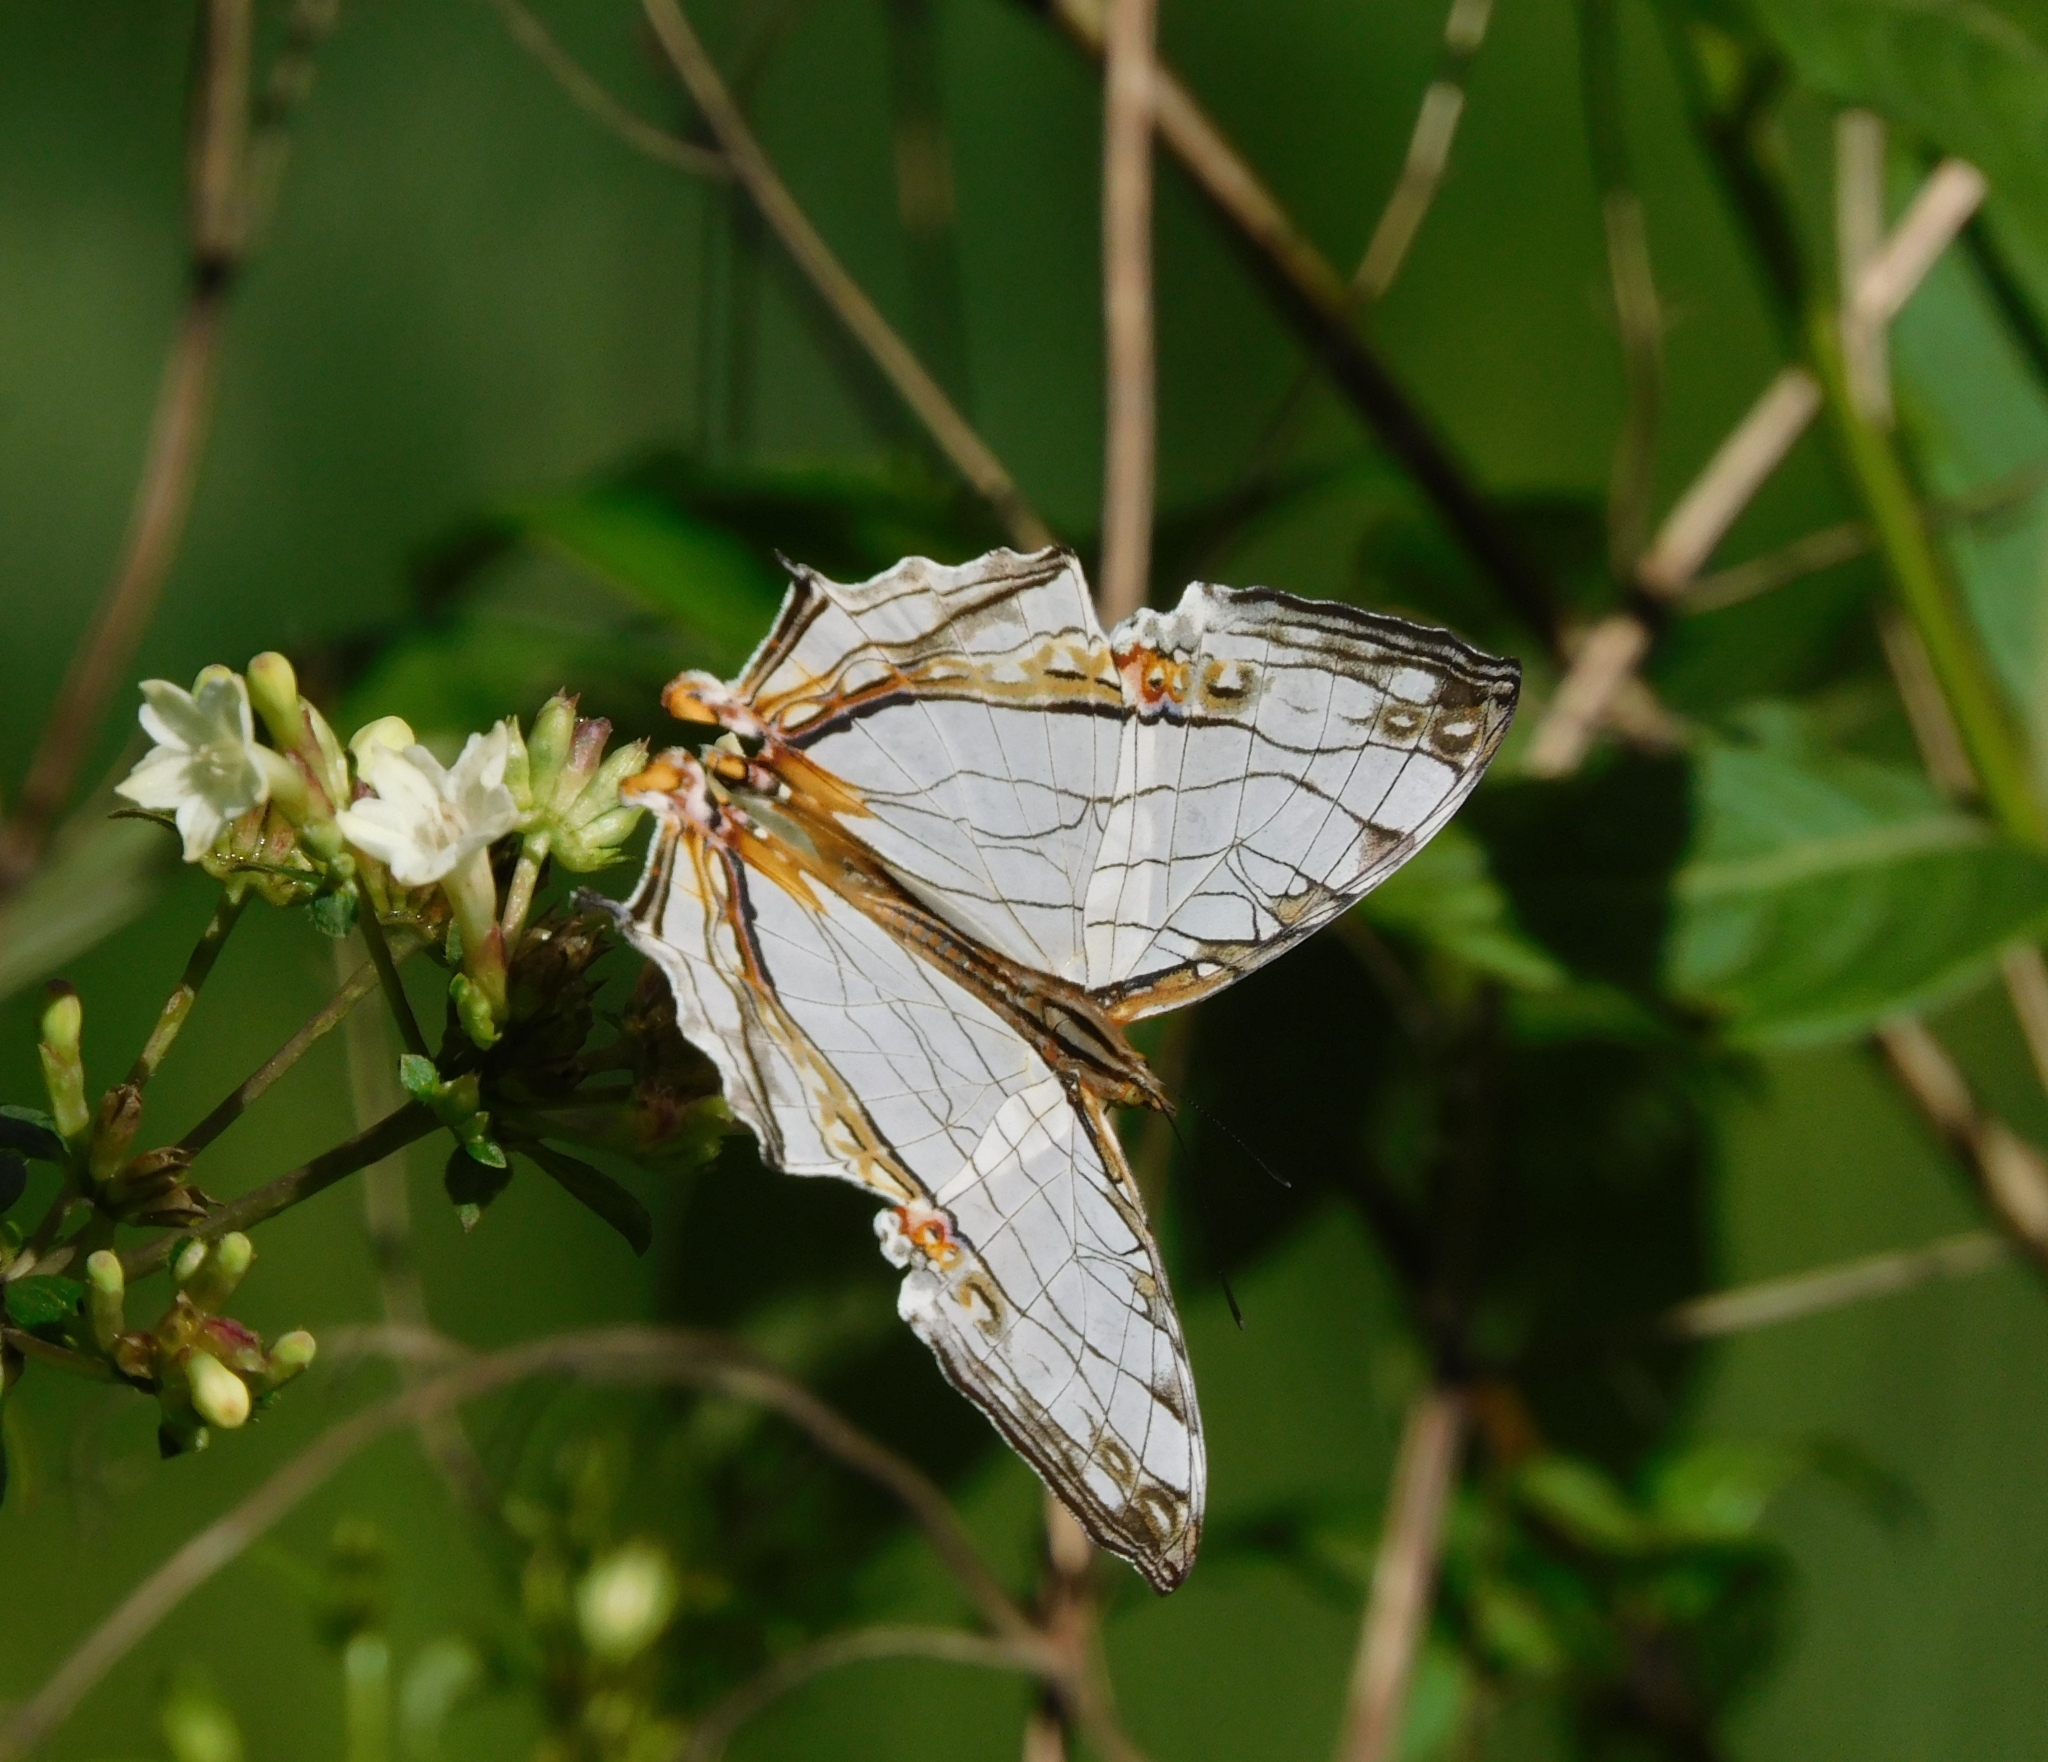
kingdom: Animalia
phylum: Arthropoda
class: Insecta
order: Lepidoptera
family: Nymphalidae
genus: Cyrestis
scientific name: Cyrestis thyodamas
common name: Common mapwing
